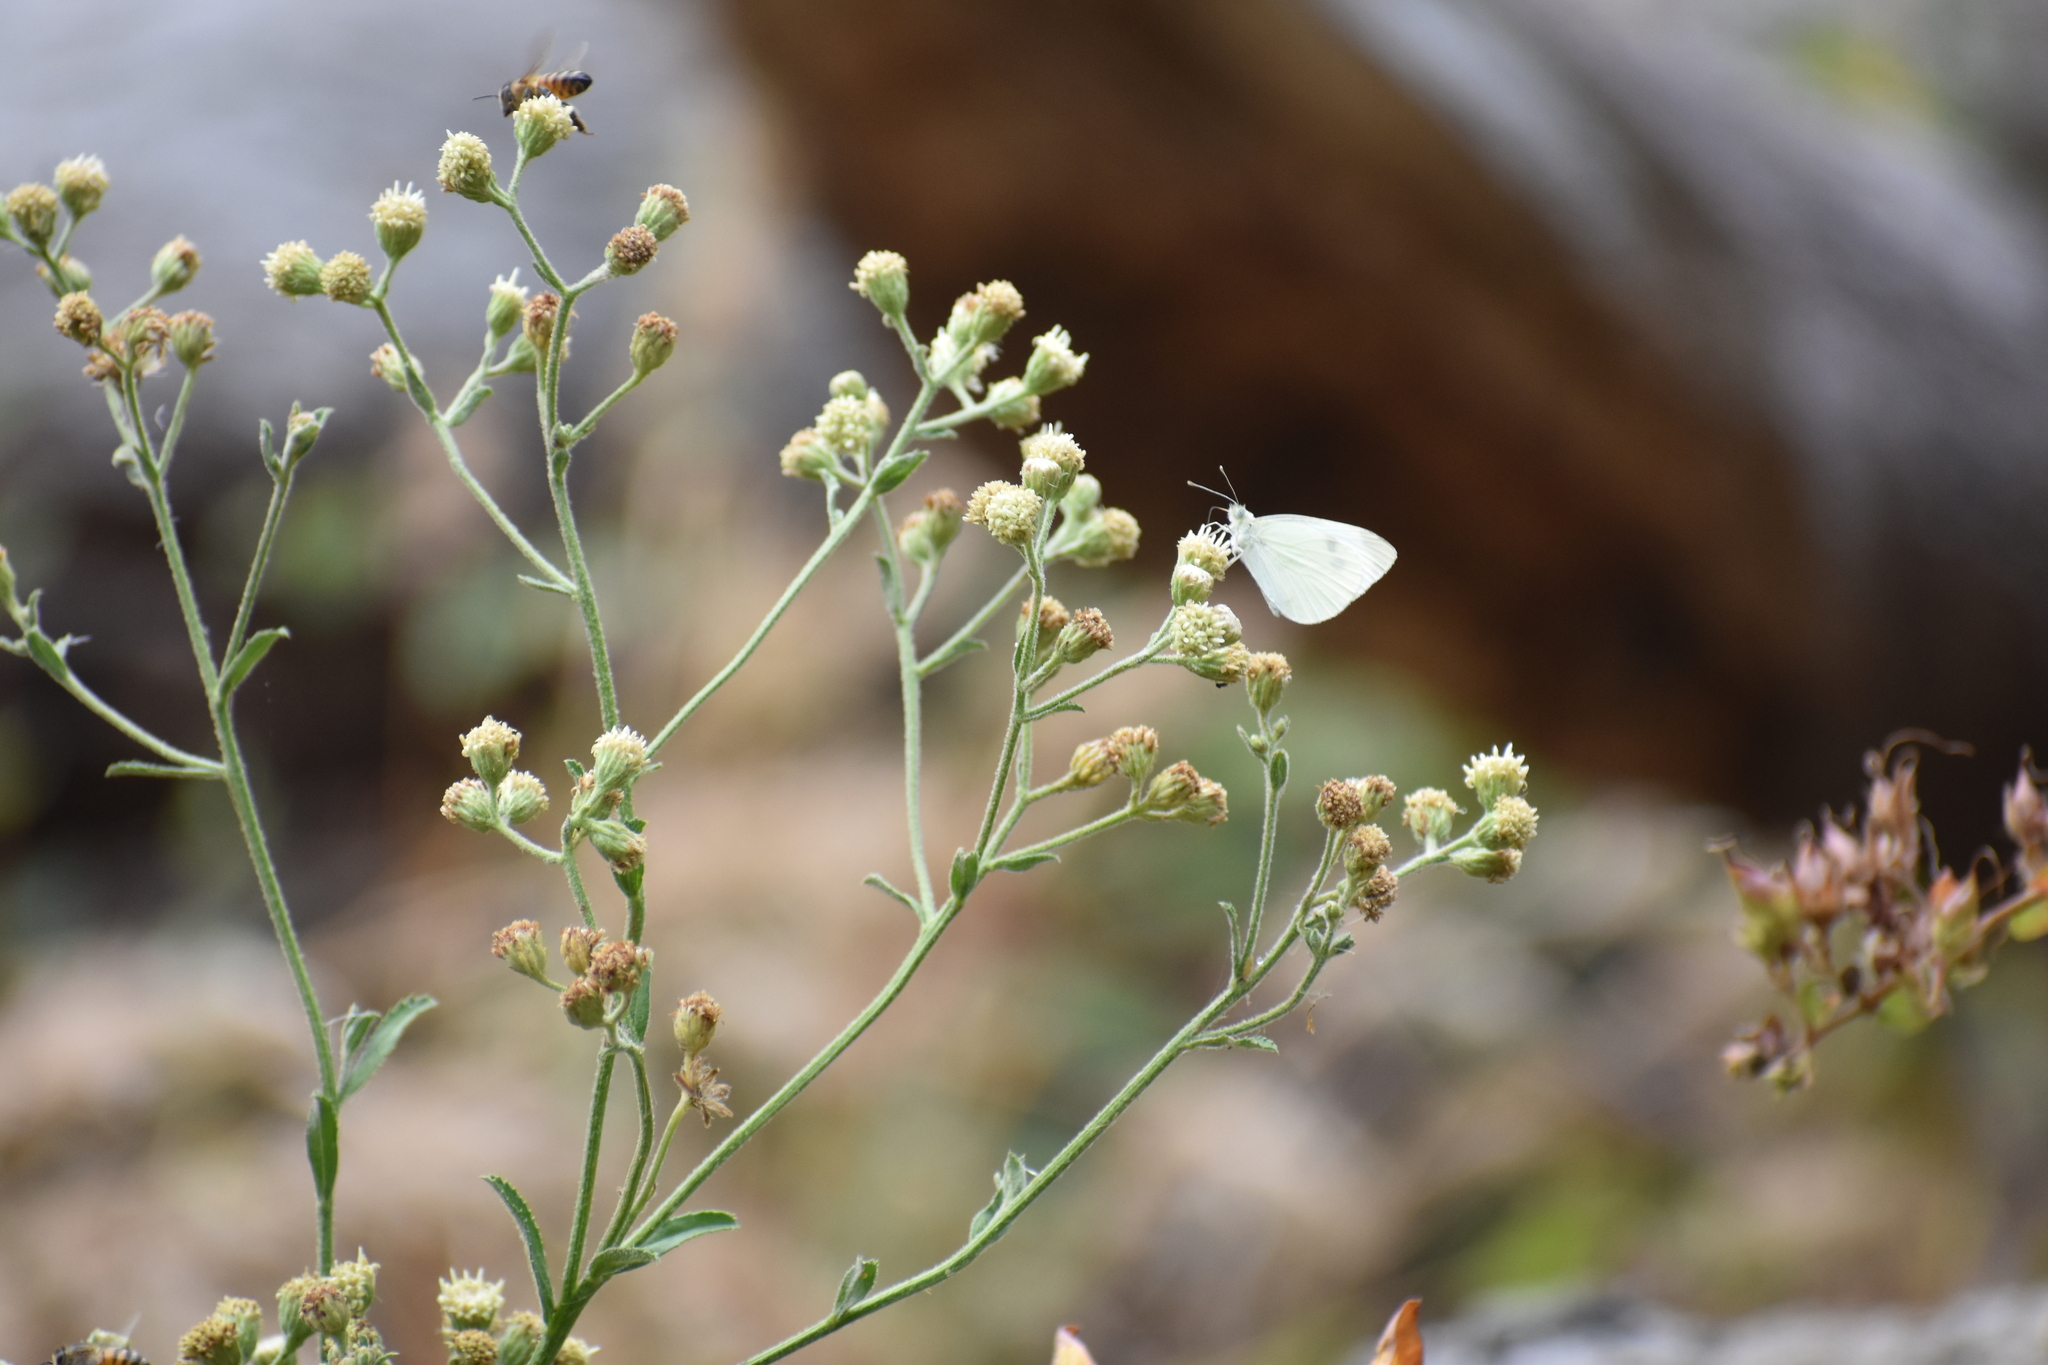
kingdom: Animalia
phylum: Arthropoda
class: Insecta
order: Lepidoptera
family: Pieridae
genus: Pieris
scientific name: Pieris rapae
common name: Small white
